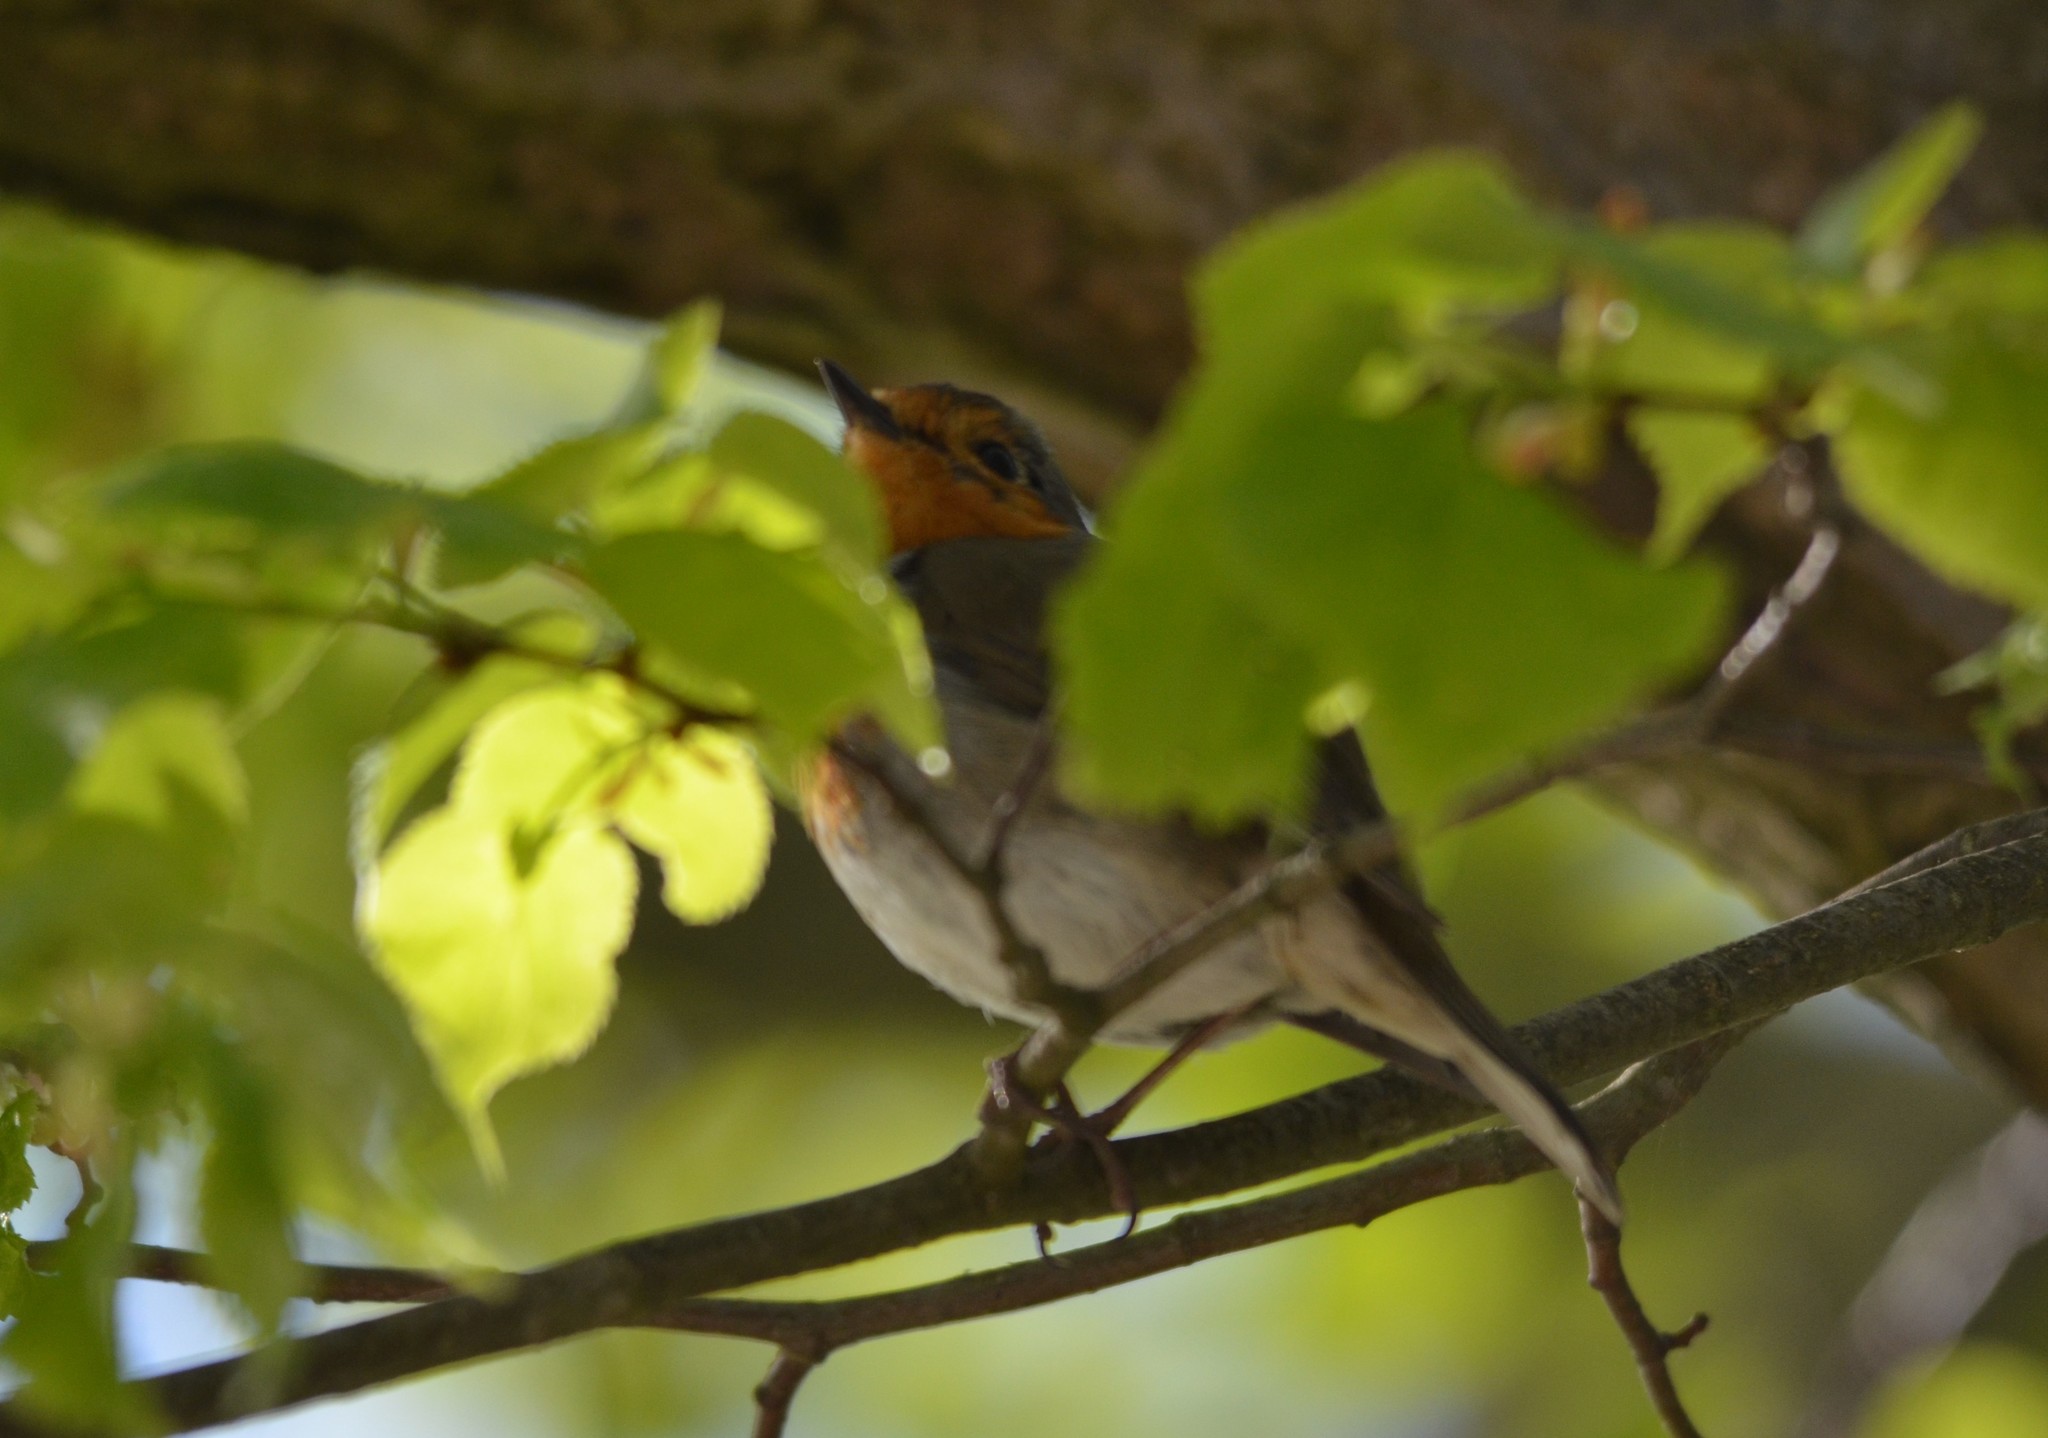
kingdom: Animalia
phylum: Chordata
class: Aves
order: Passeriformes
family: Muscicapidae
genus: Erithacus
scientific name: Erithacus rubecula
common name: European robin
